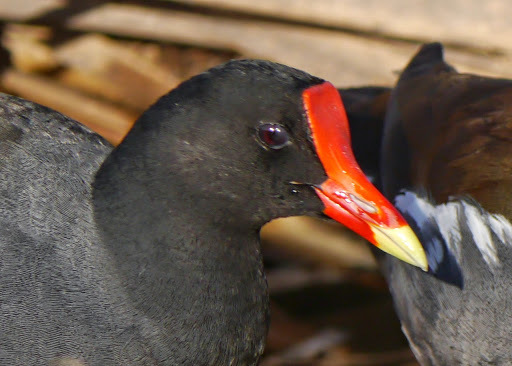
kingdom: Animalia
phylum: Chordata
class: Aves
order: Gruiformes
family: Rallidae
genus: Gallinula
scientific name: Gallinula chloropus
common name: Common moorhen
